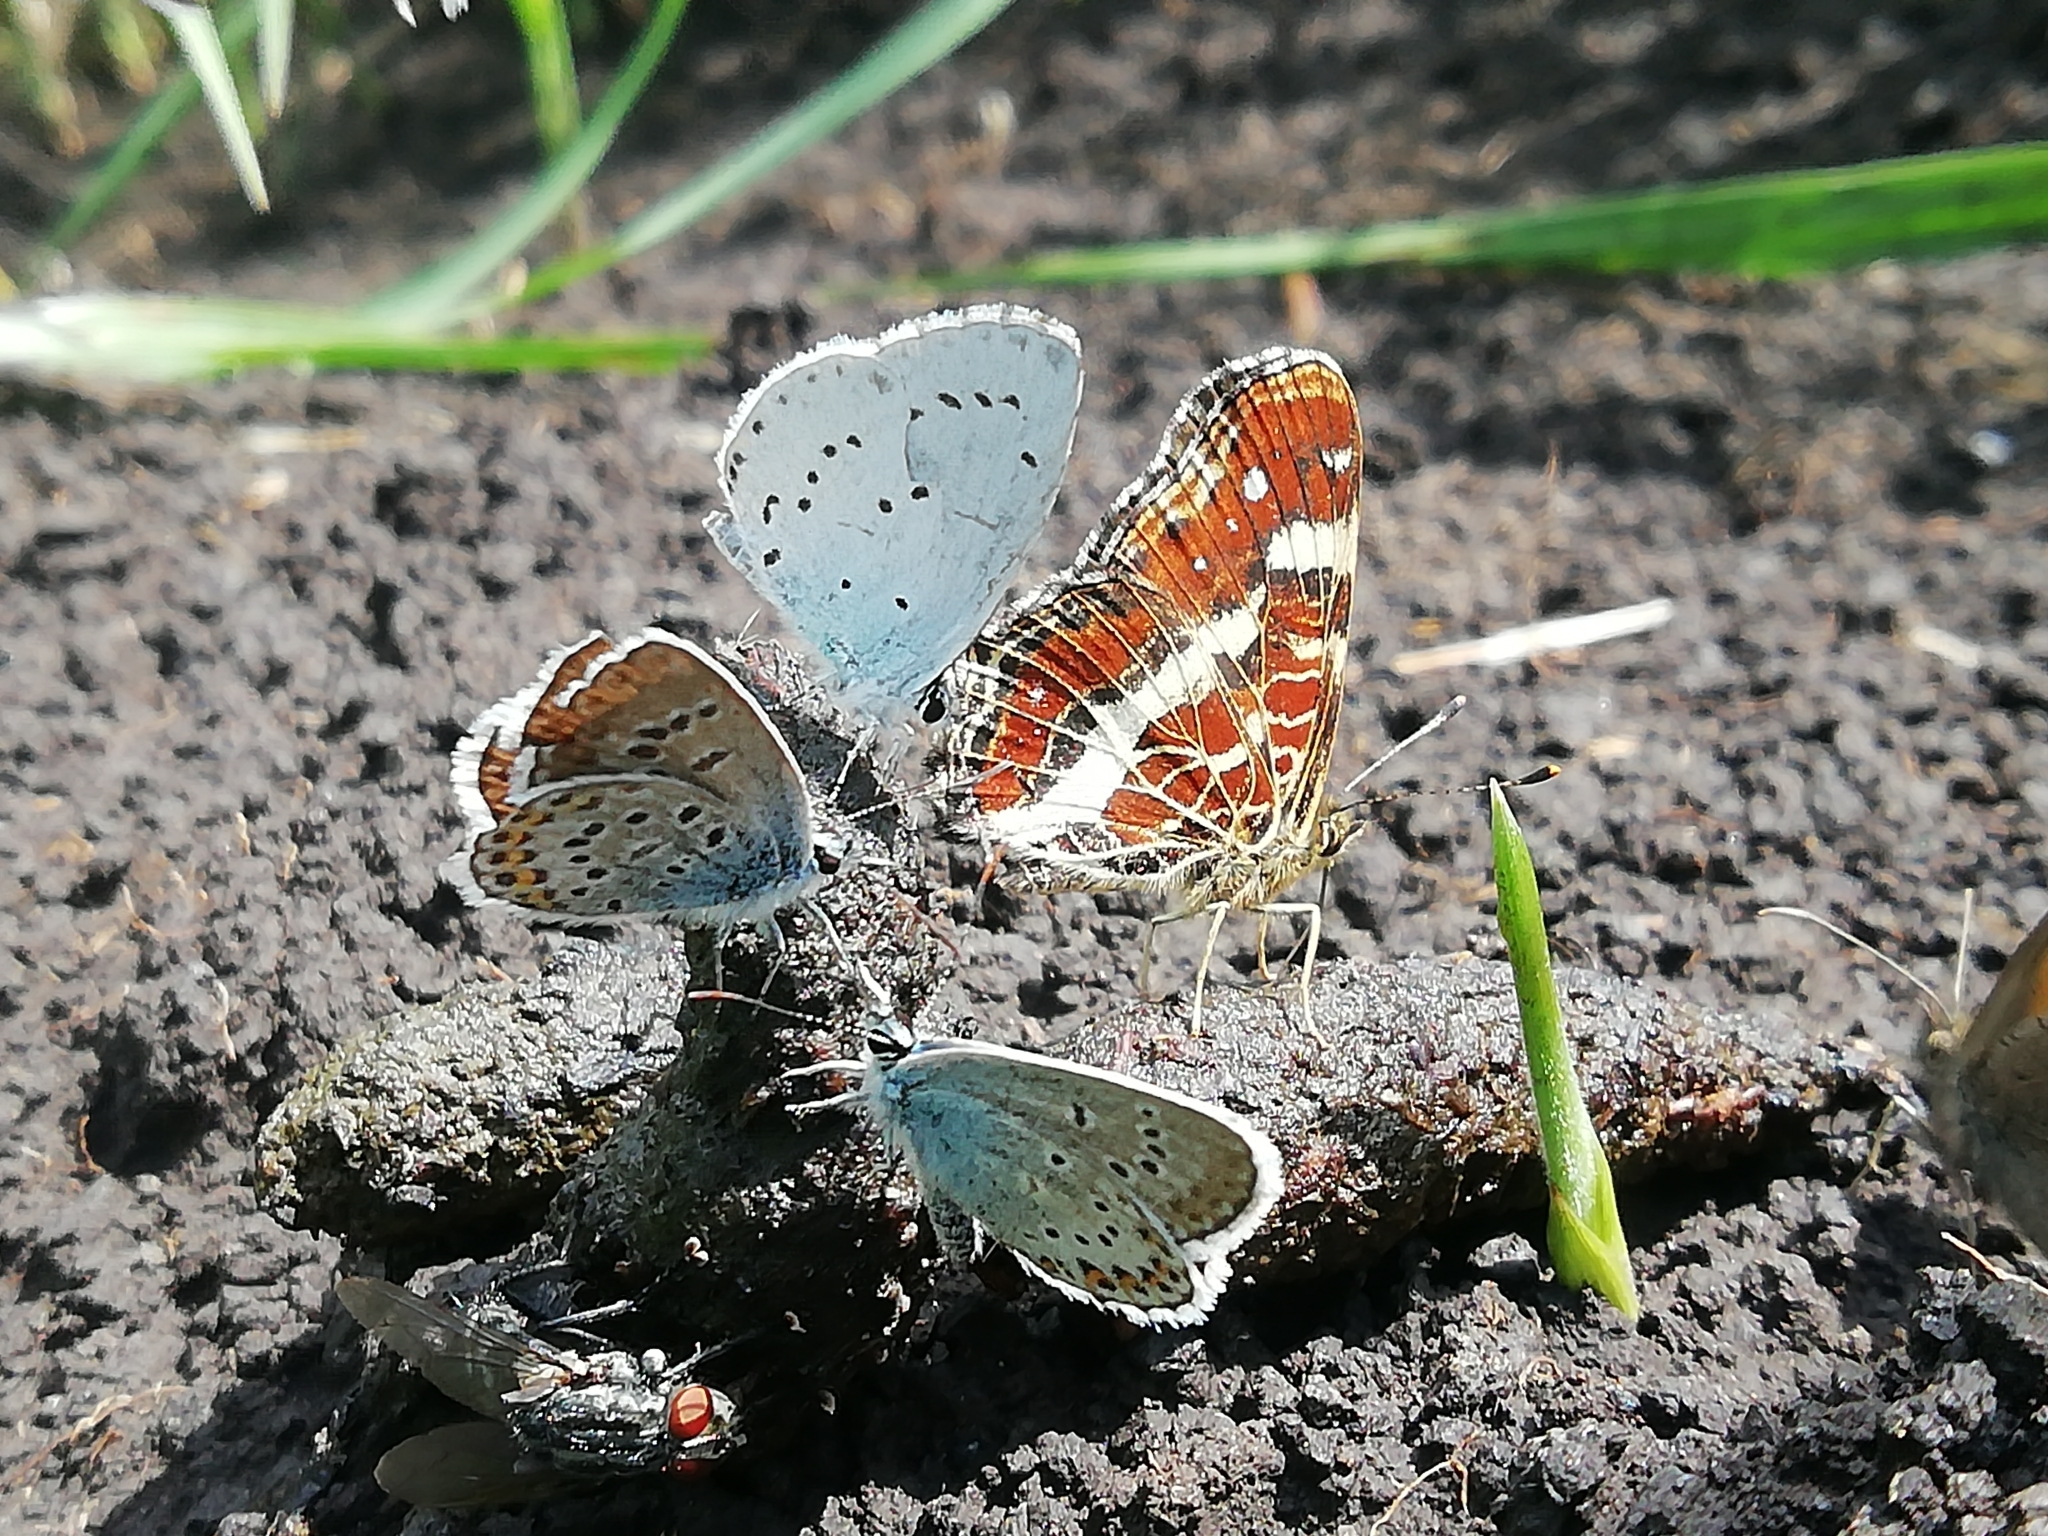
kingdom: Animalia
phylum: Arthropoda
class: Insecta
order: Lepidoptera
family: Lycaenidae
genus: Celastrina
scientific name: Celastrina argiolus
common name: Holly blue
